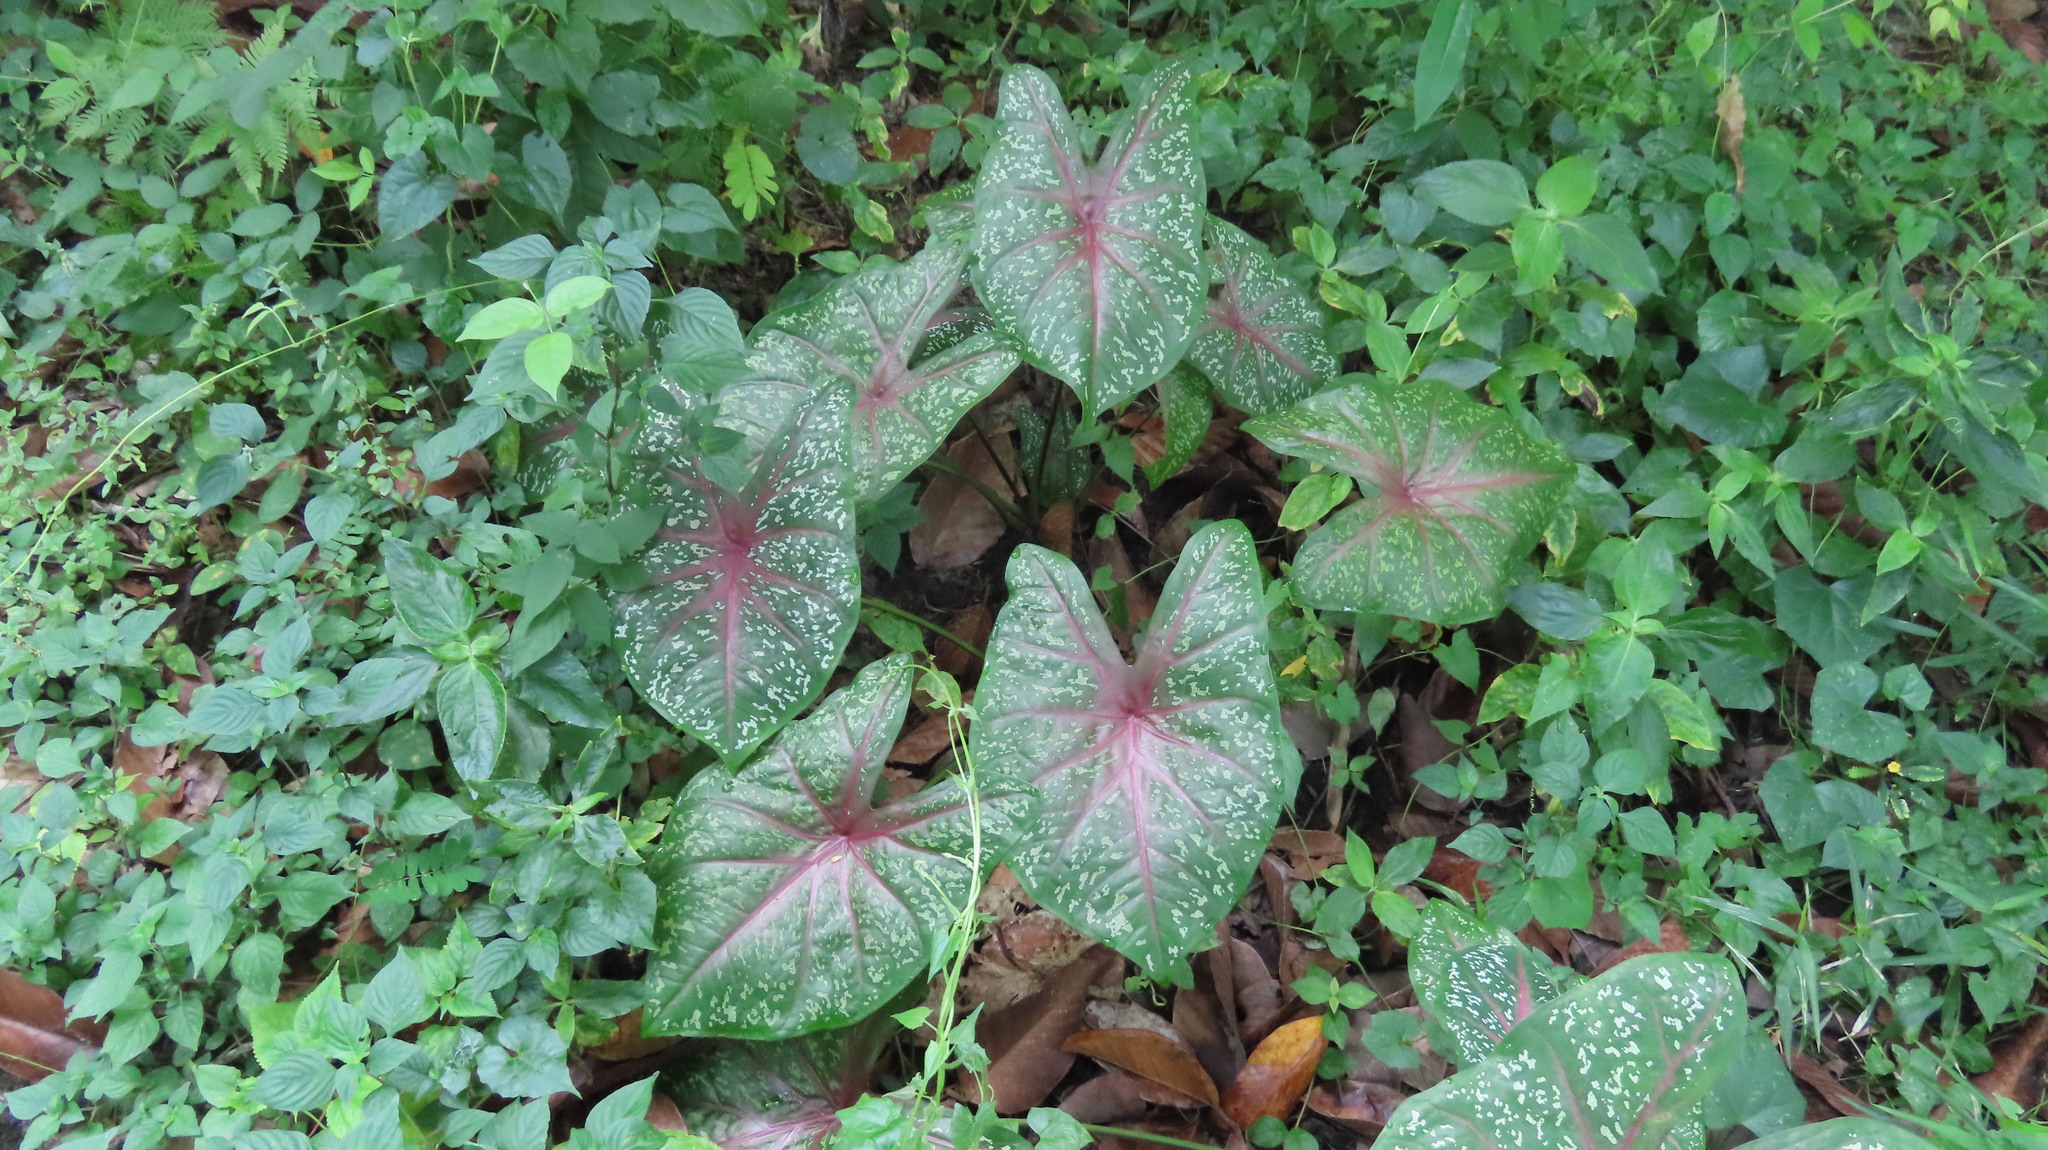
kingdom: Plantae
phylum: Tracheophyta
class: Liliopsida
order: Alismatales
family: Araceae
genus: Caladium
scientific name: Caladium bicolor
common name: Artist's pallet
